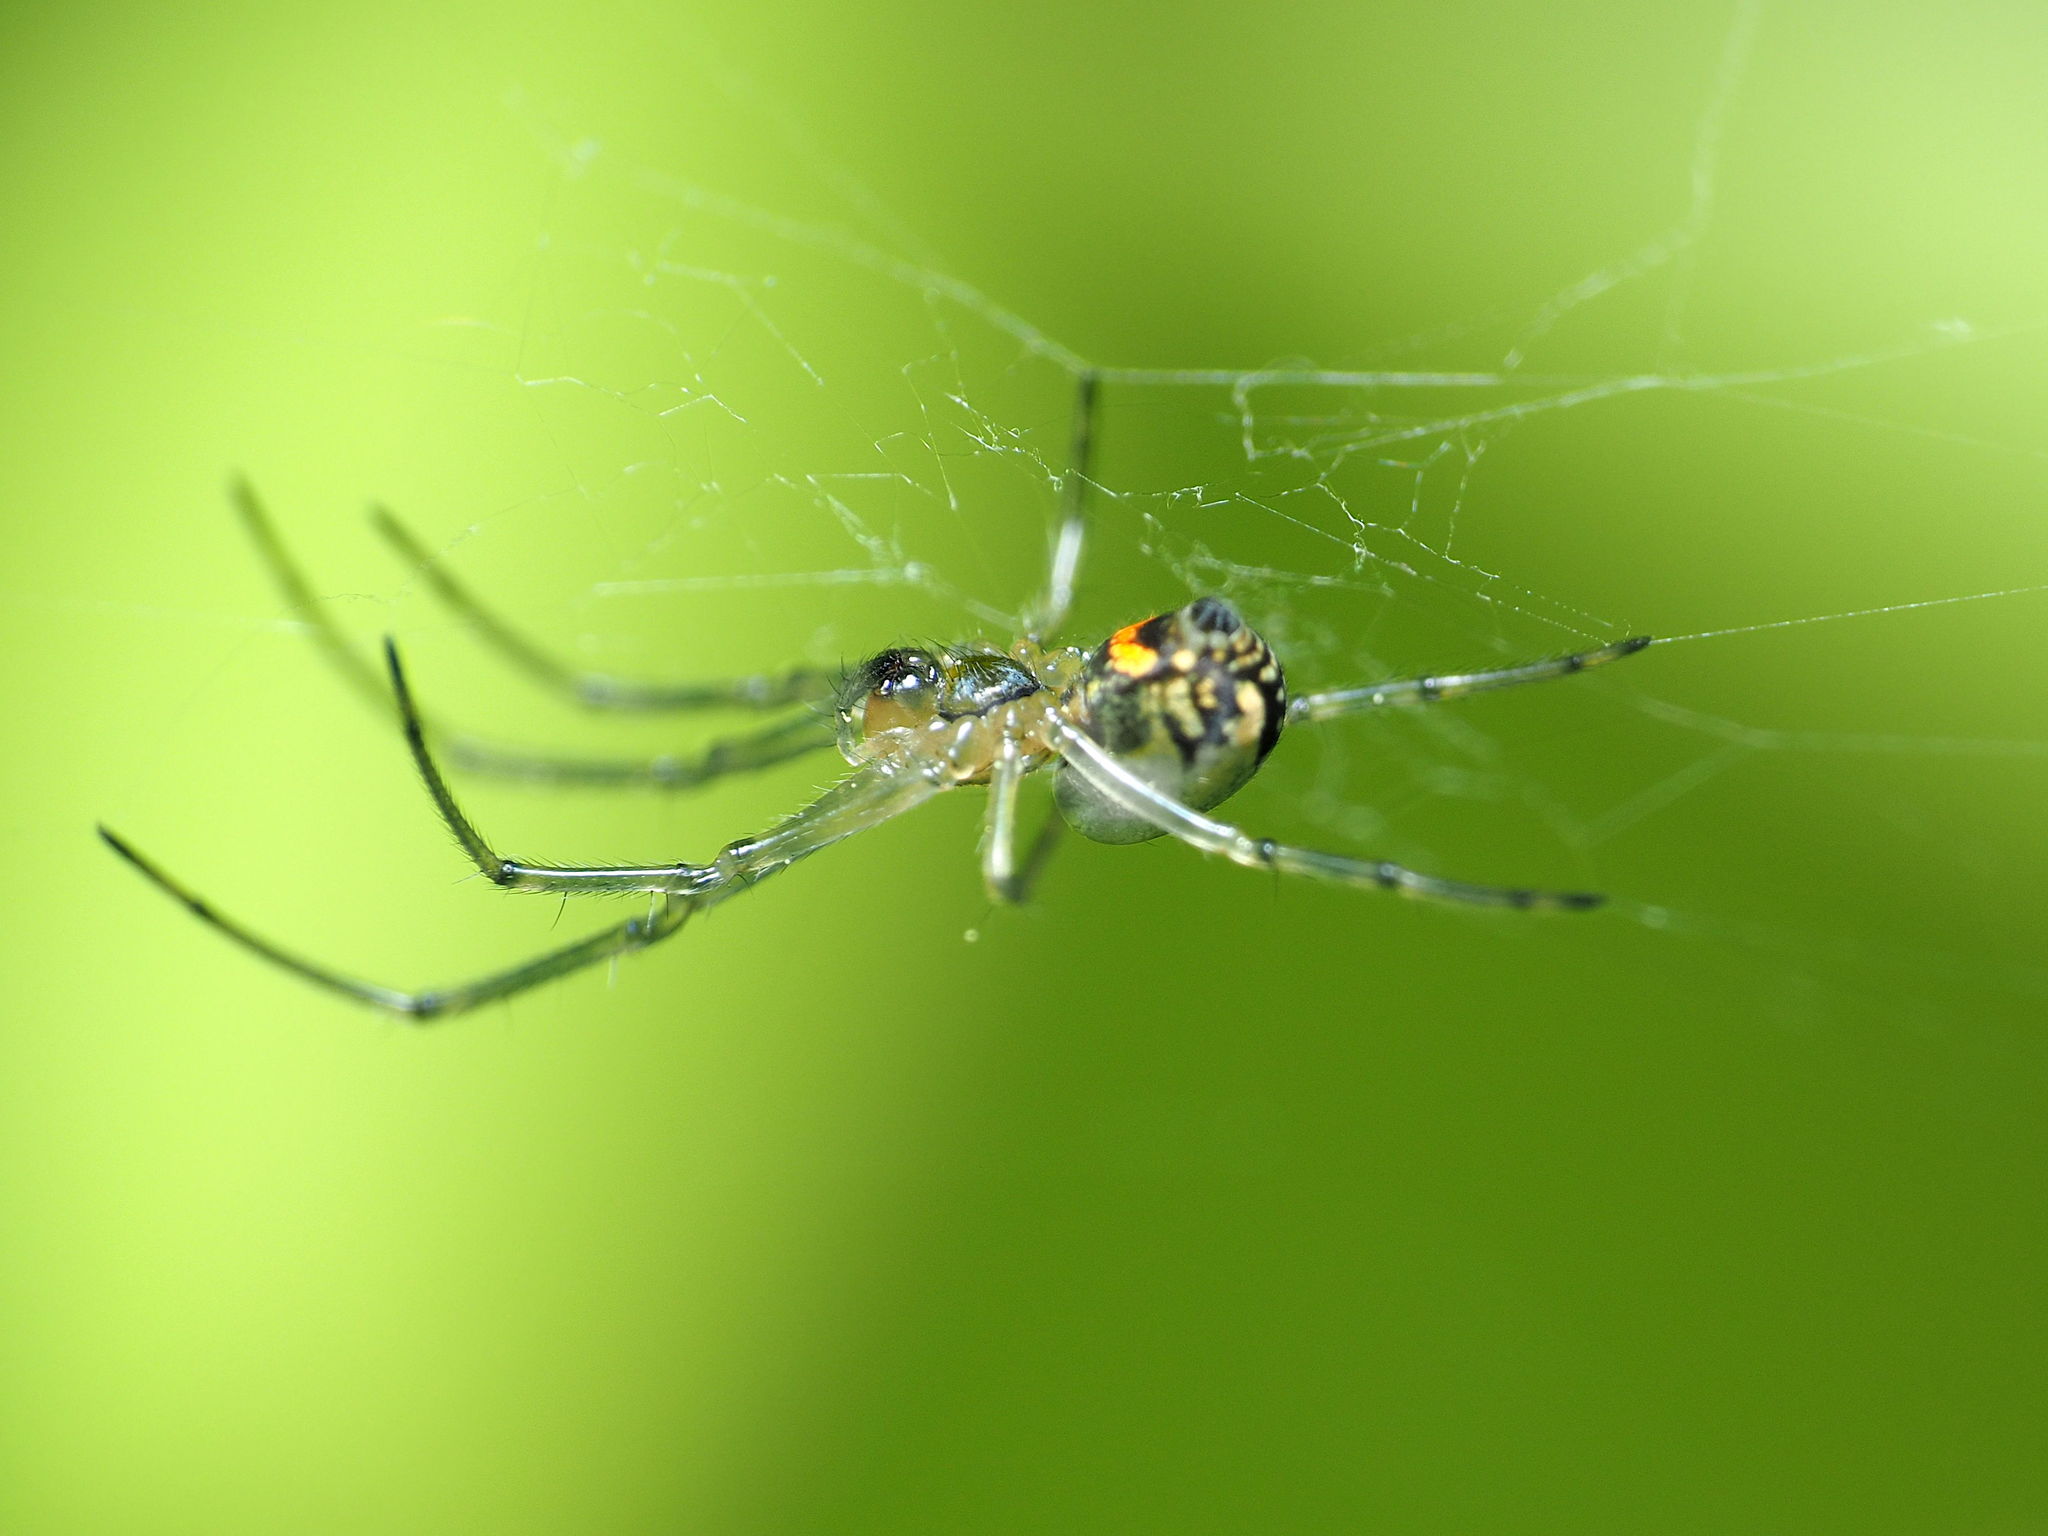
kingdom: Animalia
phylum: Arthropoda
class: Arachnida
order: Araneae
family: Tetragnathidae
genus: Leucauge
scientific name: Leucauge venusta
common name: Longjawed orb weavers
